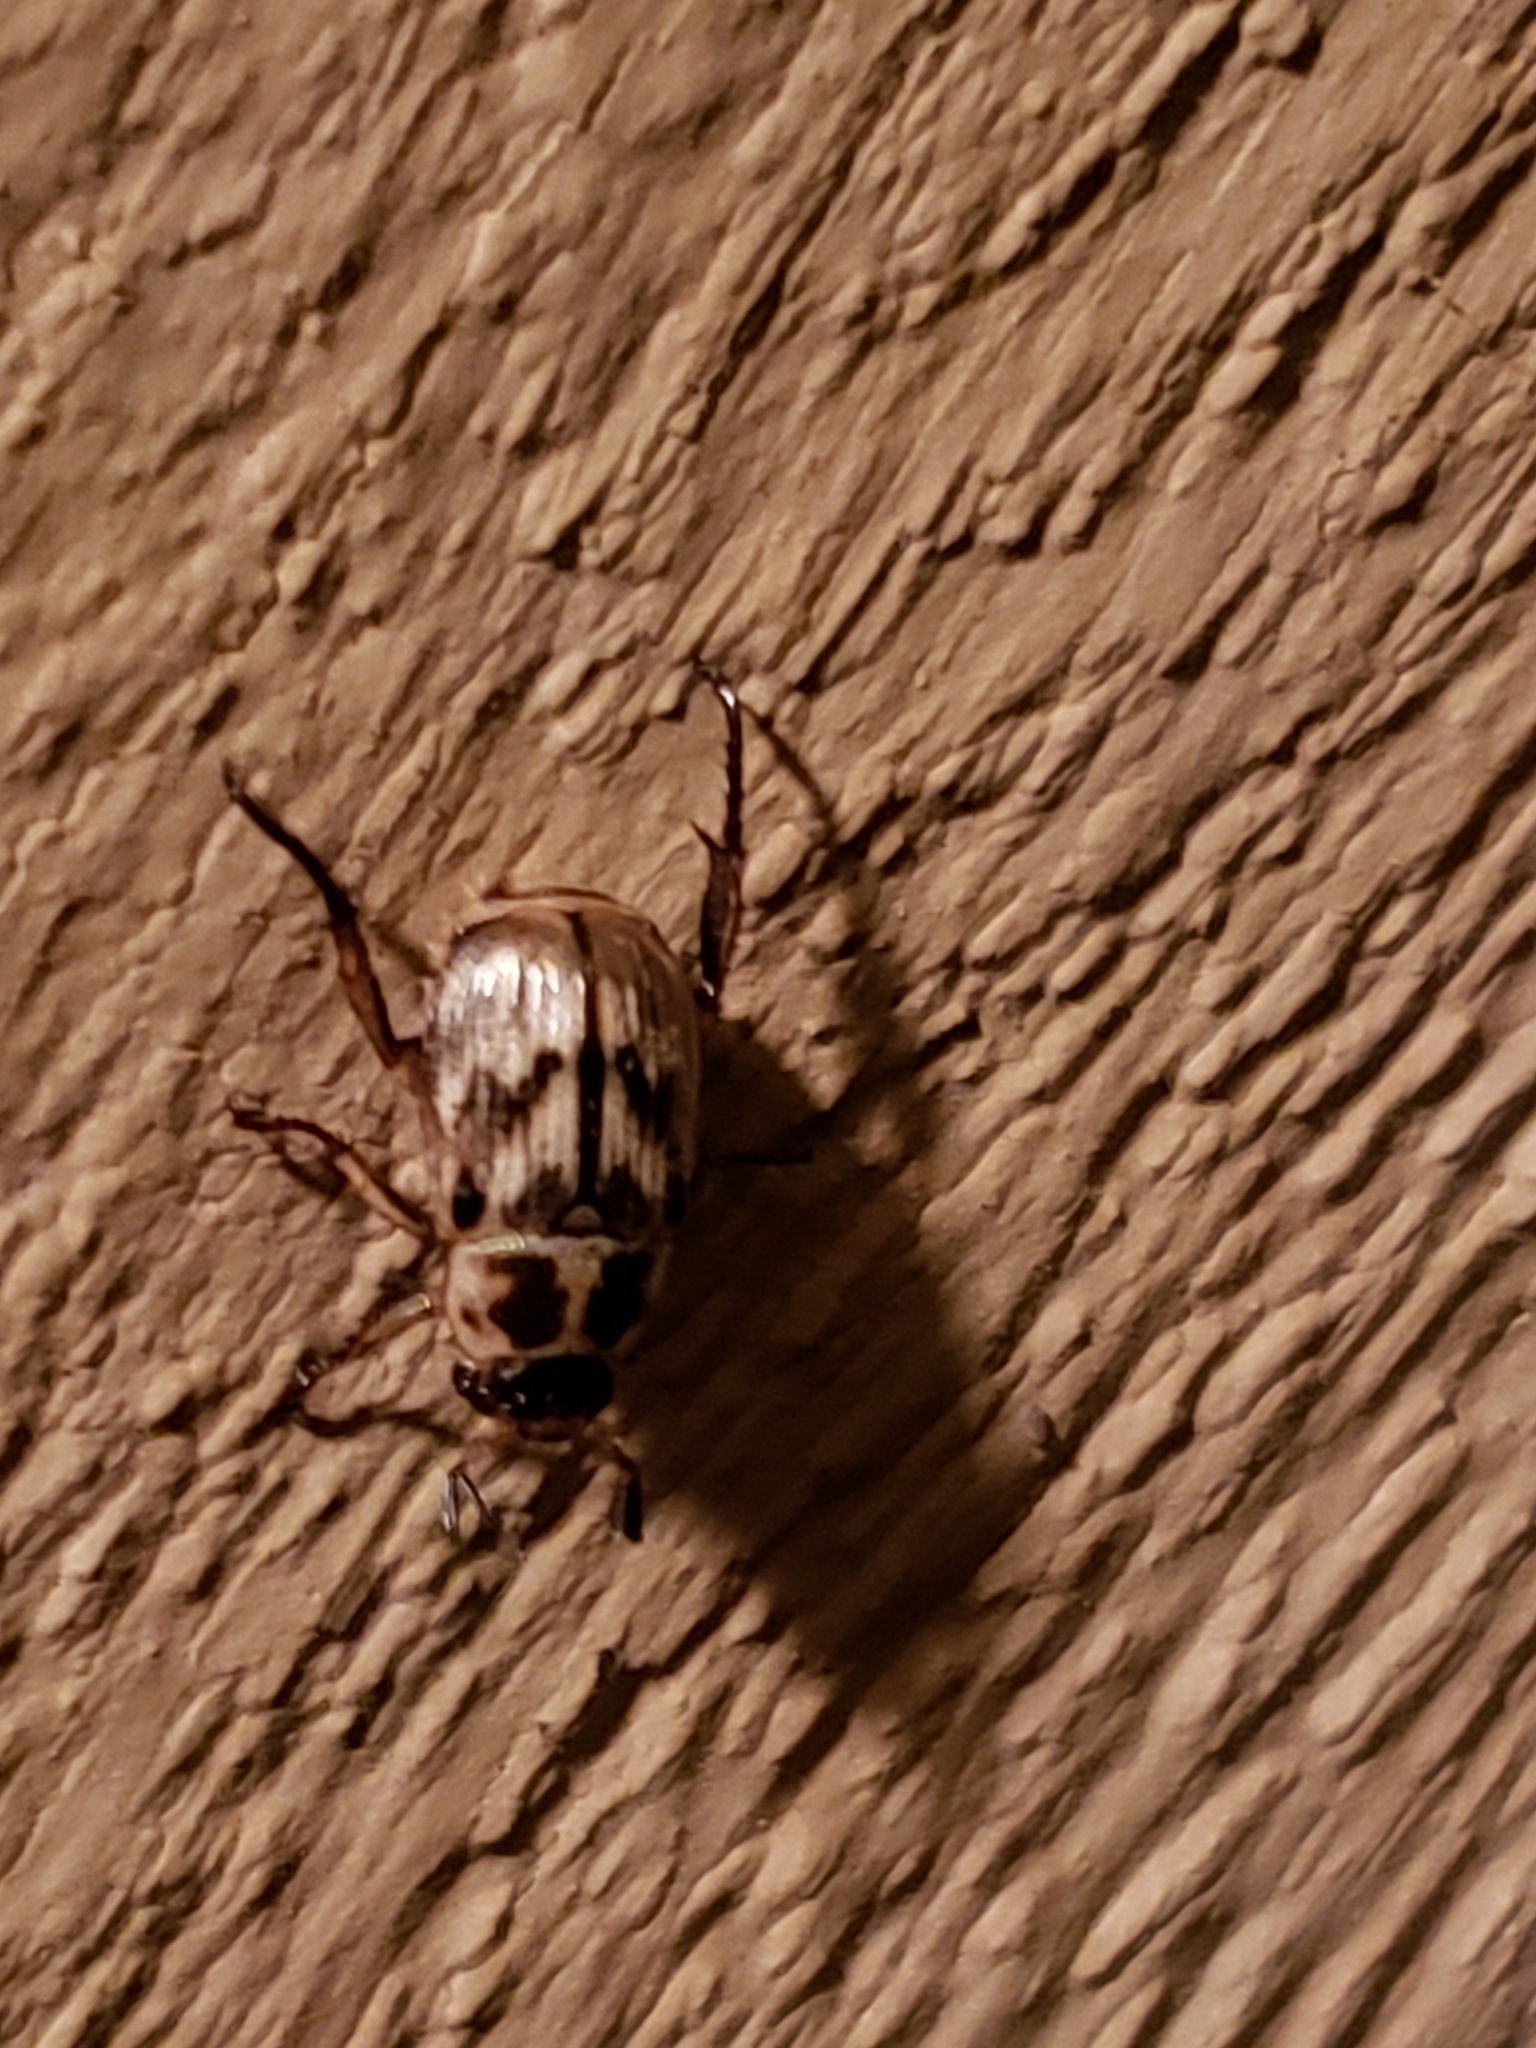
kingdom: Animalia
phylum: Arthropoda
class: Insecta
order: Coleoptera
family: Scarabaeidae
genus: Exomala
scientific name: Exomala orientalis
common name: Oriental beetle
